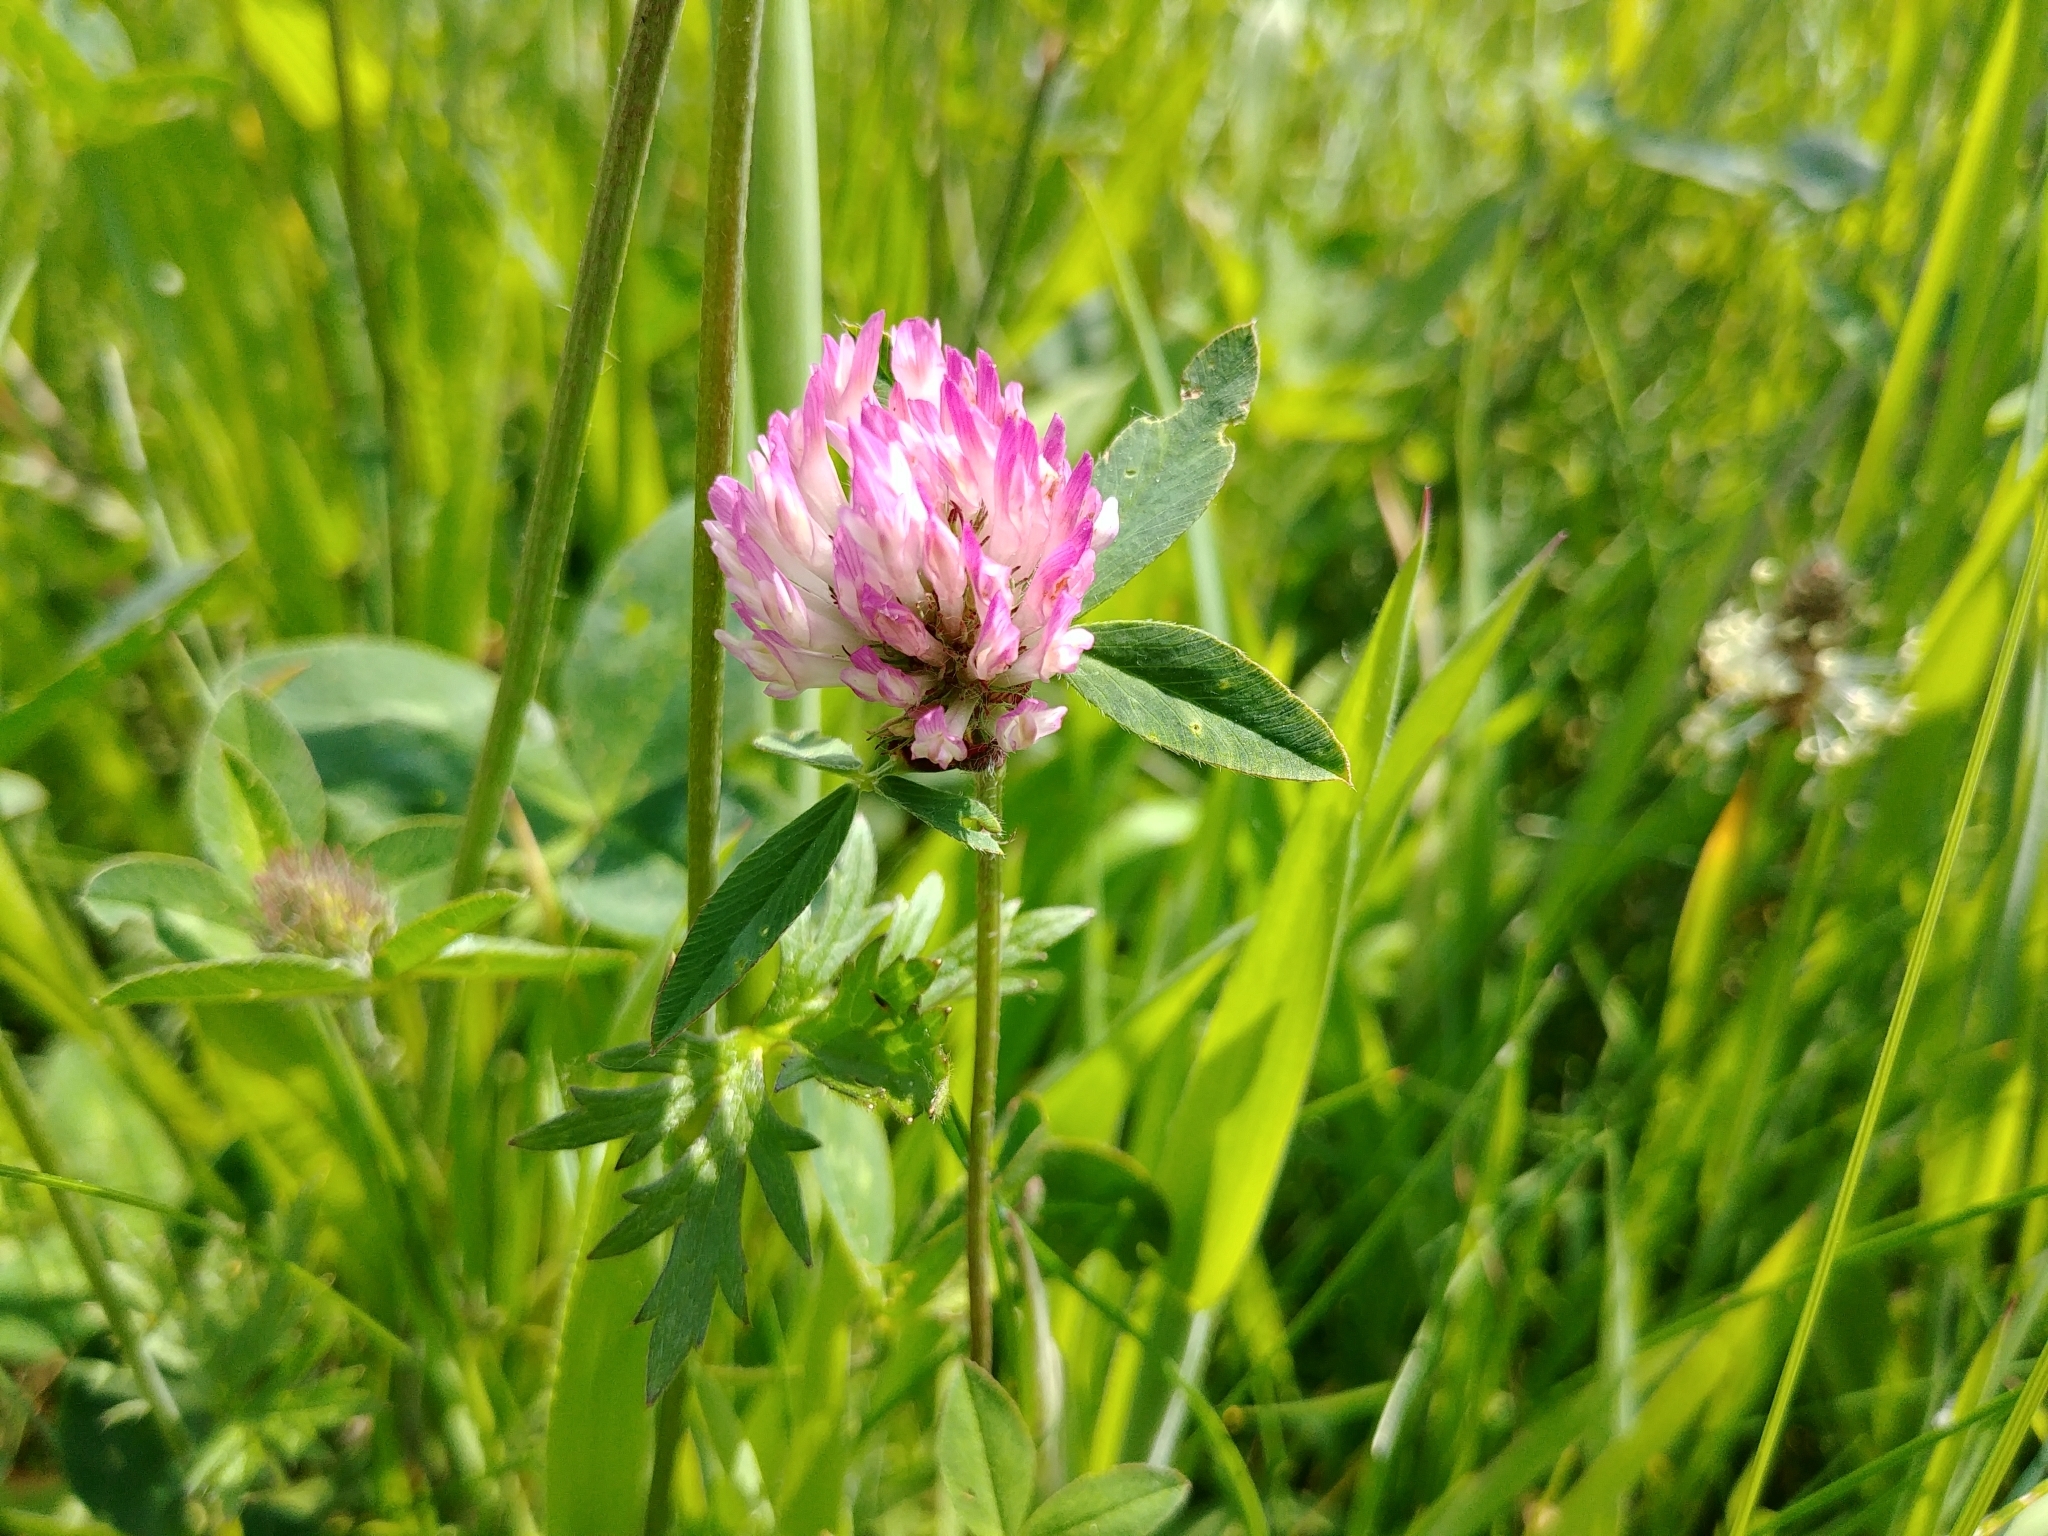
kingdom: Plantae
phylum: Tracheophyta
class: Magnoliopsida
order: Fabales
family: Fabaceae
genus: Trifolium
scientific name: Trifolium pratense
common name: Red clover
